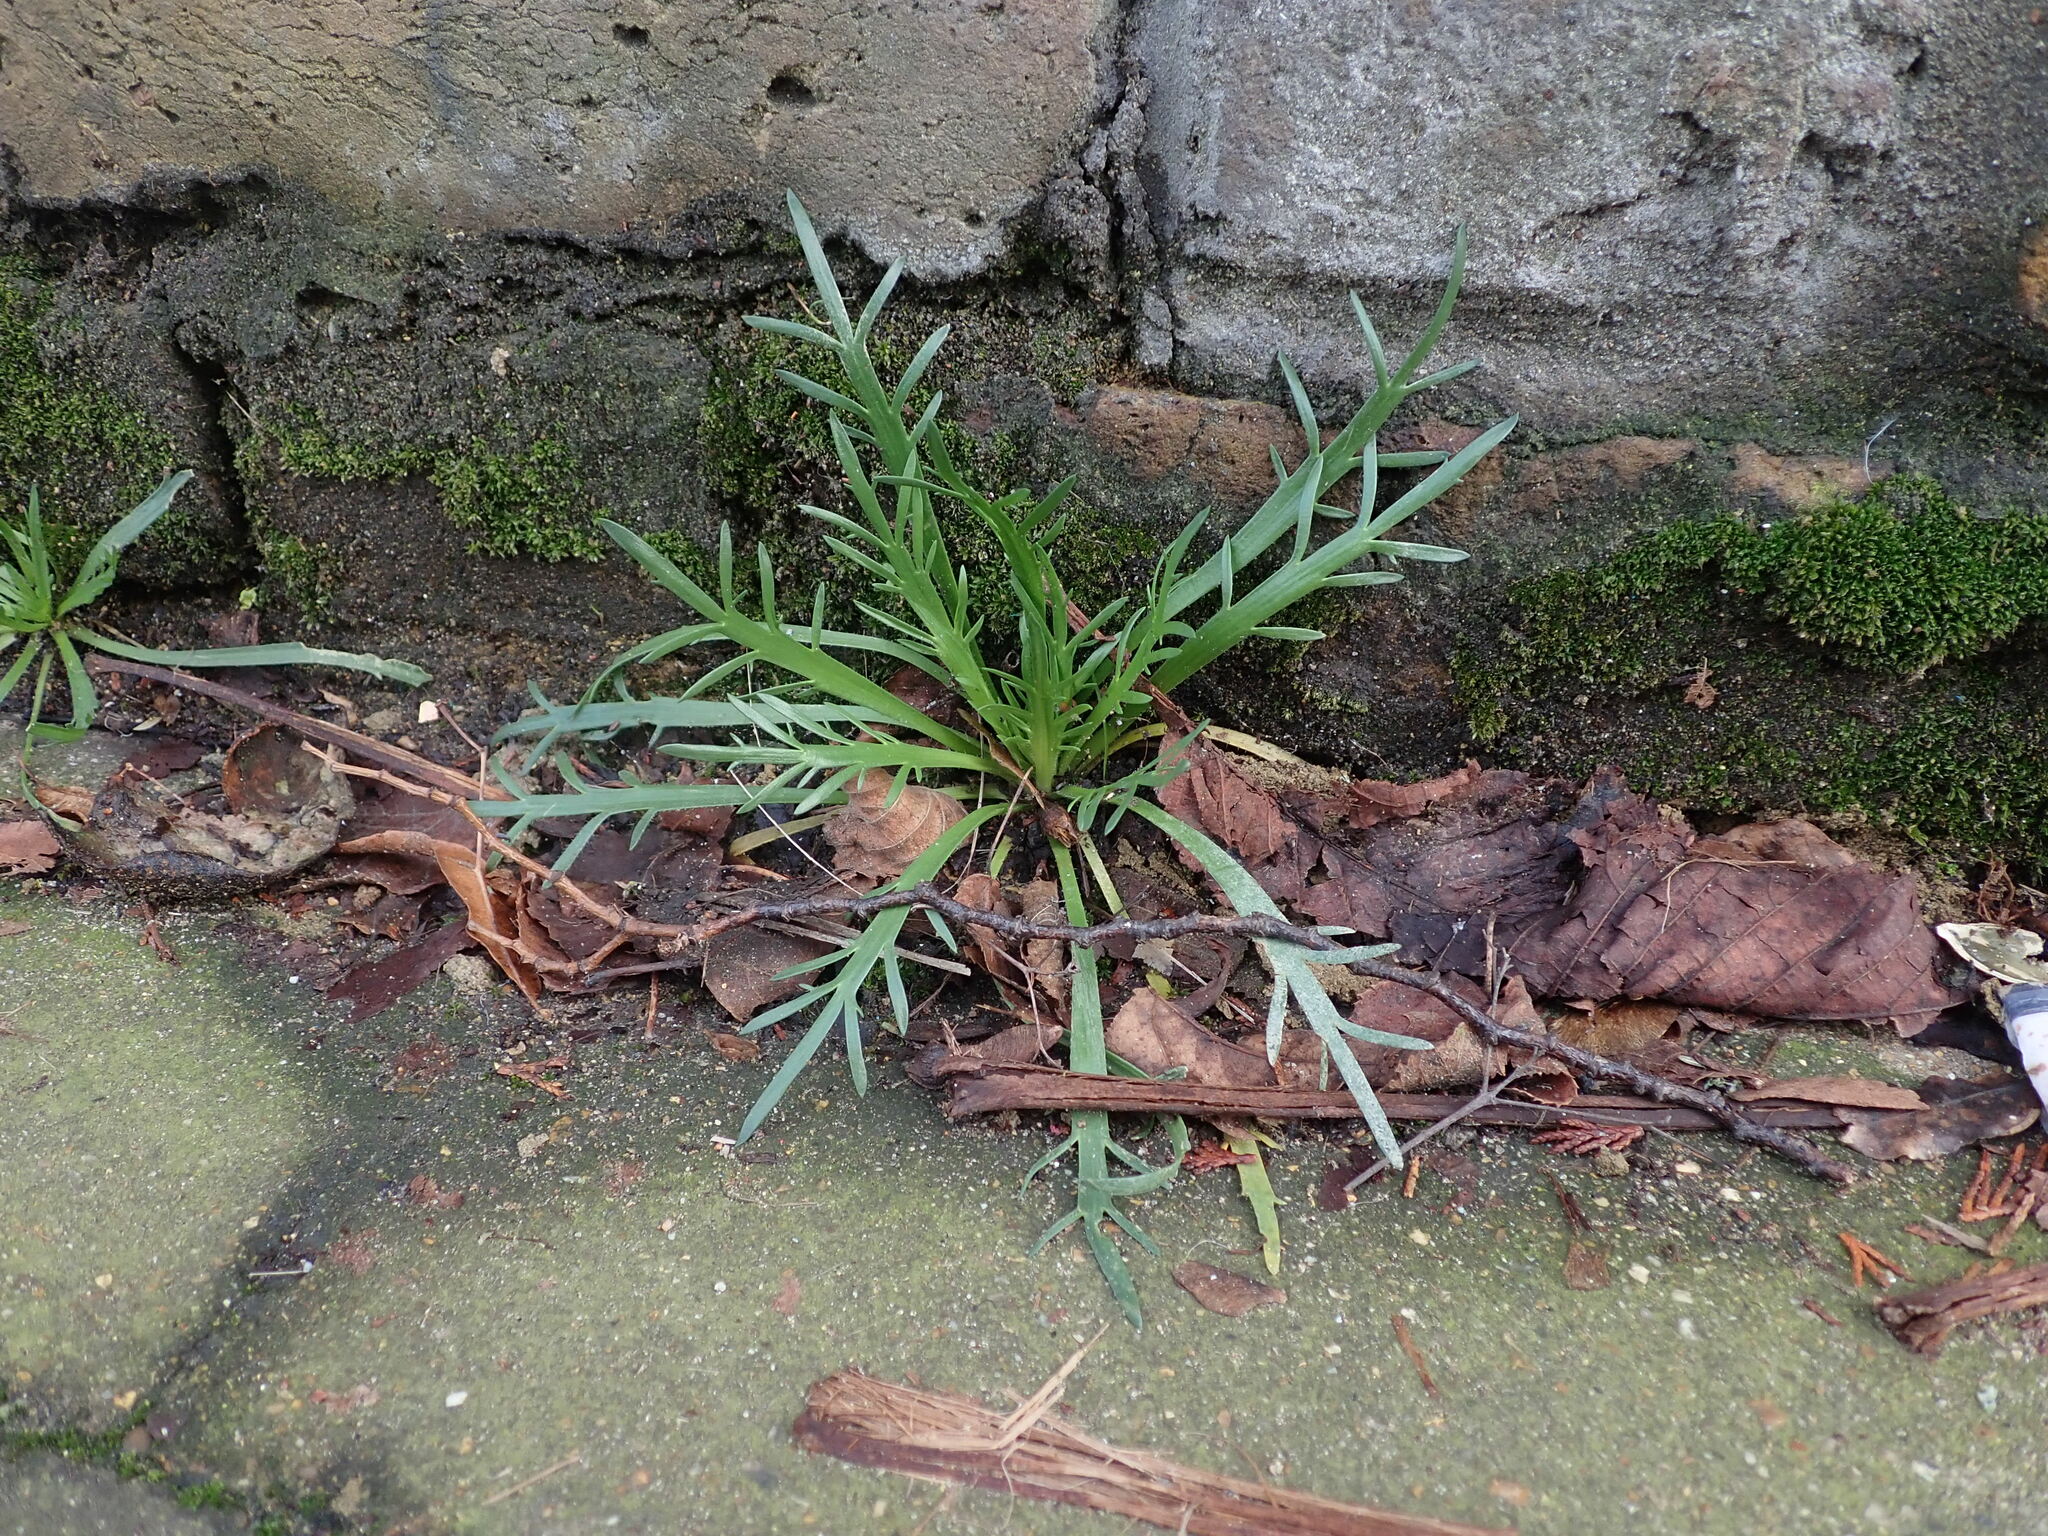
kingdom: Plantae
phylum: Tracheophyta
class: Magnoliopsida
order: Lamiales
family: Plantaginaceae
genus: Plantago
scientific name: Plantago coronopus
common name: Buck's-horn plantain
